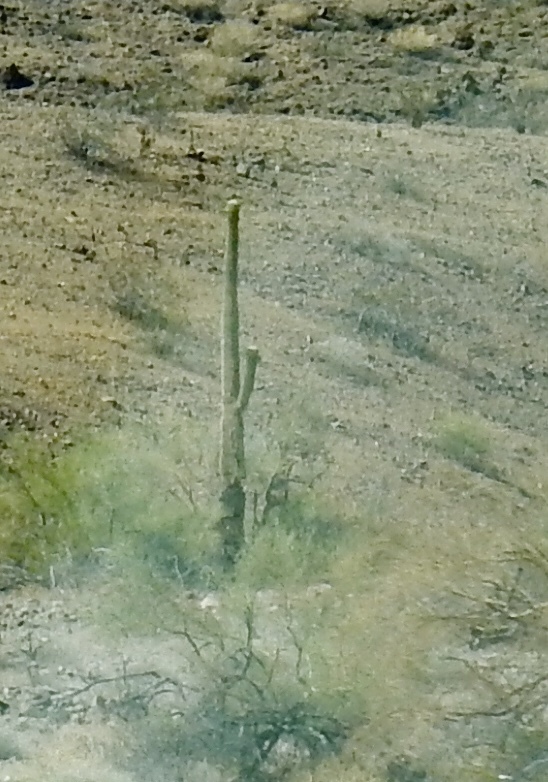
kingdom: Plantae
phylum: Tracheophyta
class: Magnoliopsida
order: Caryophyllales
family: Cactaceae
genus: Carnegiea
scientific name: Carnegiea gigantea
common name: Saguaro
